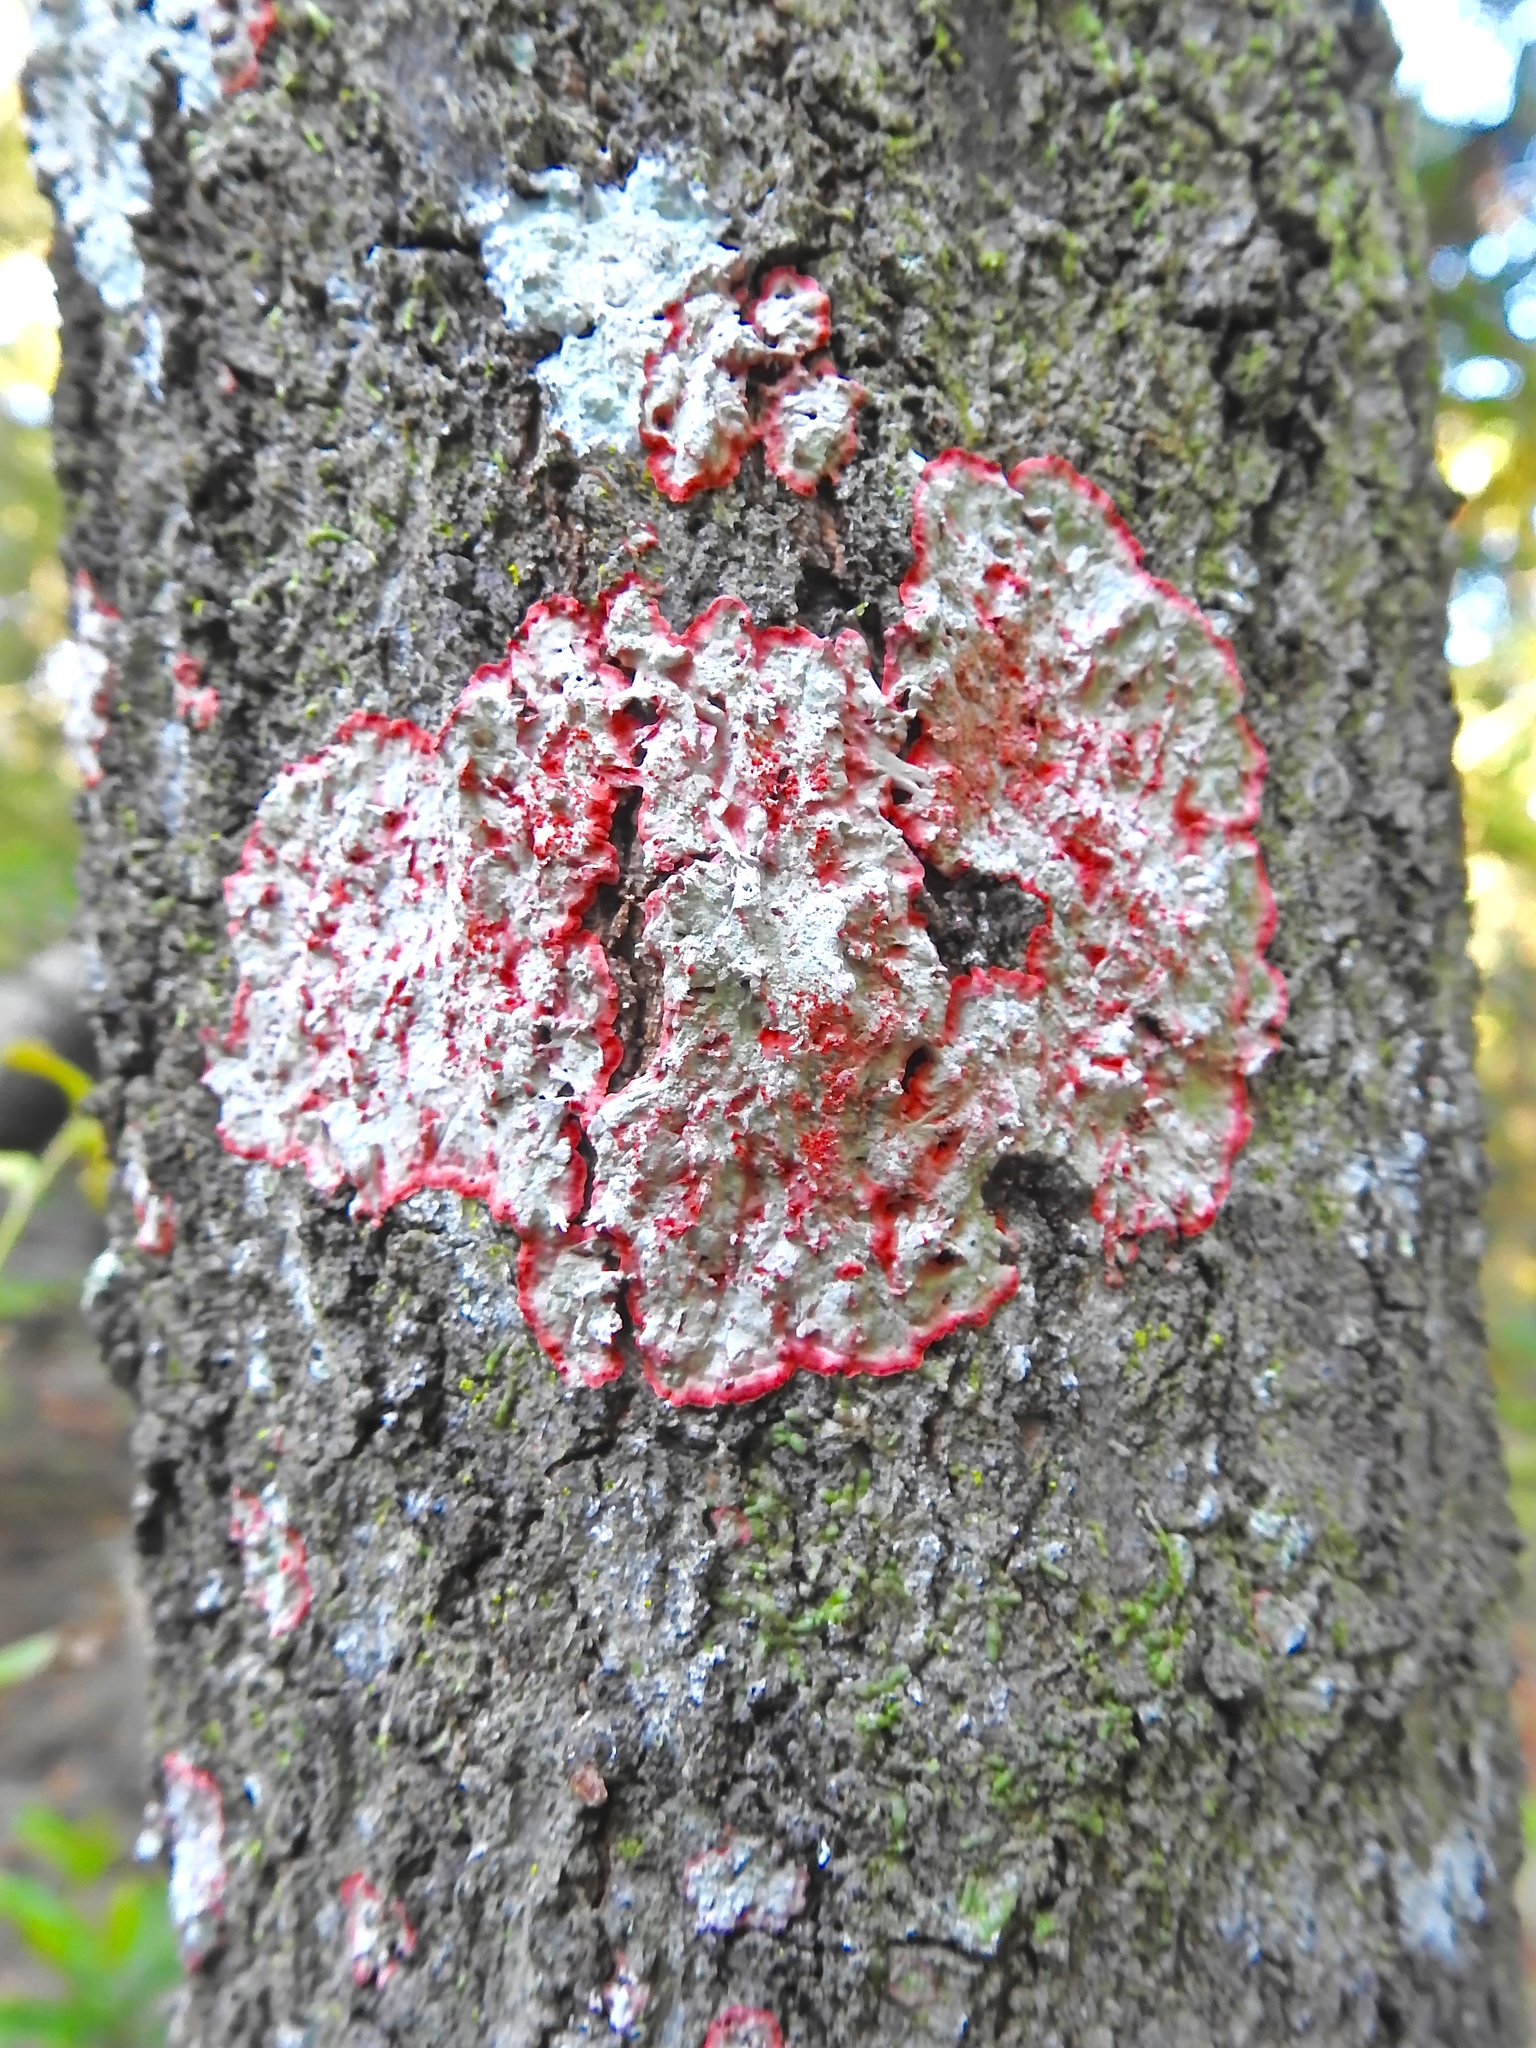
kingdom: Fungi
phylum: Ascomycota
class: Arthoniomycetes
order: Arthoniales
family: Arthoniaceae
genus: Herpothallon
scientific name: Herpothallon rubrocinctum
